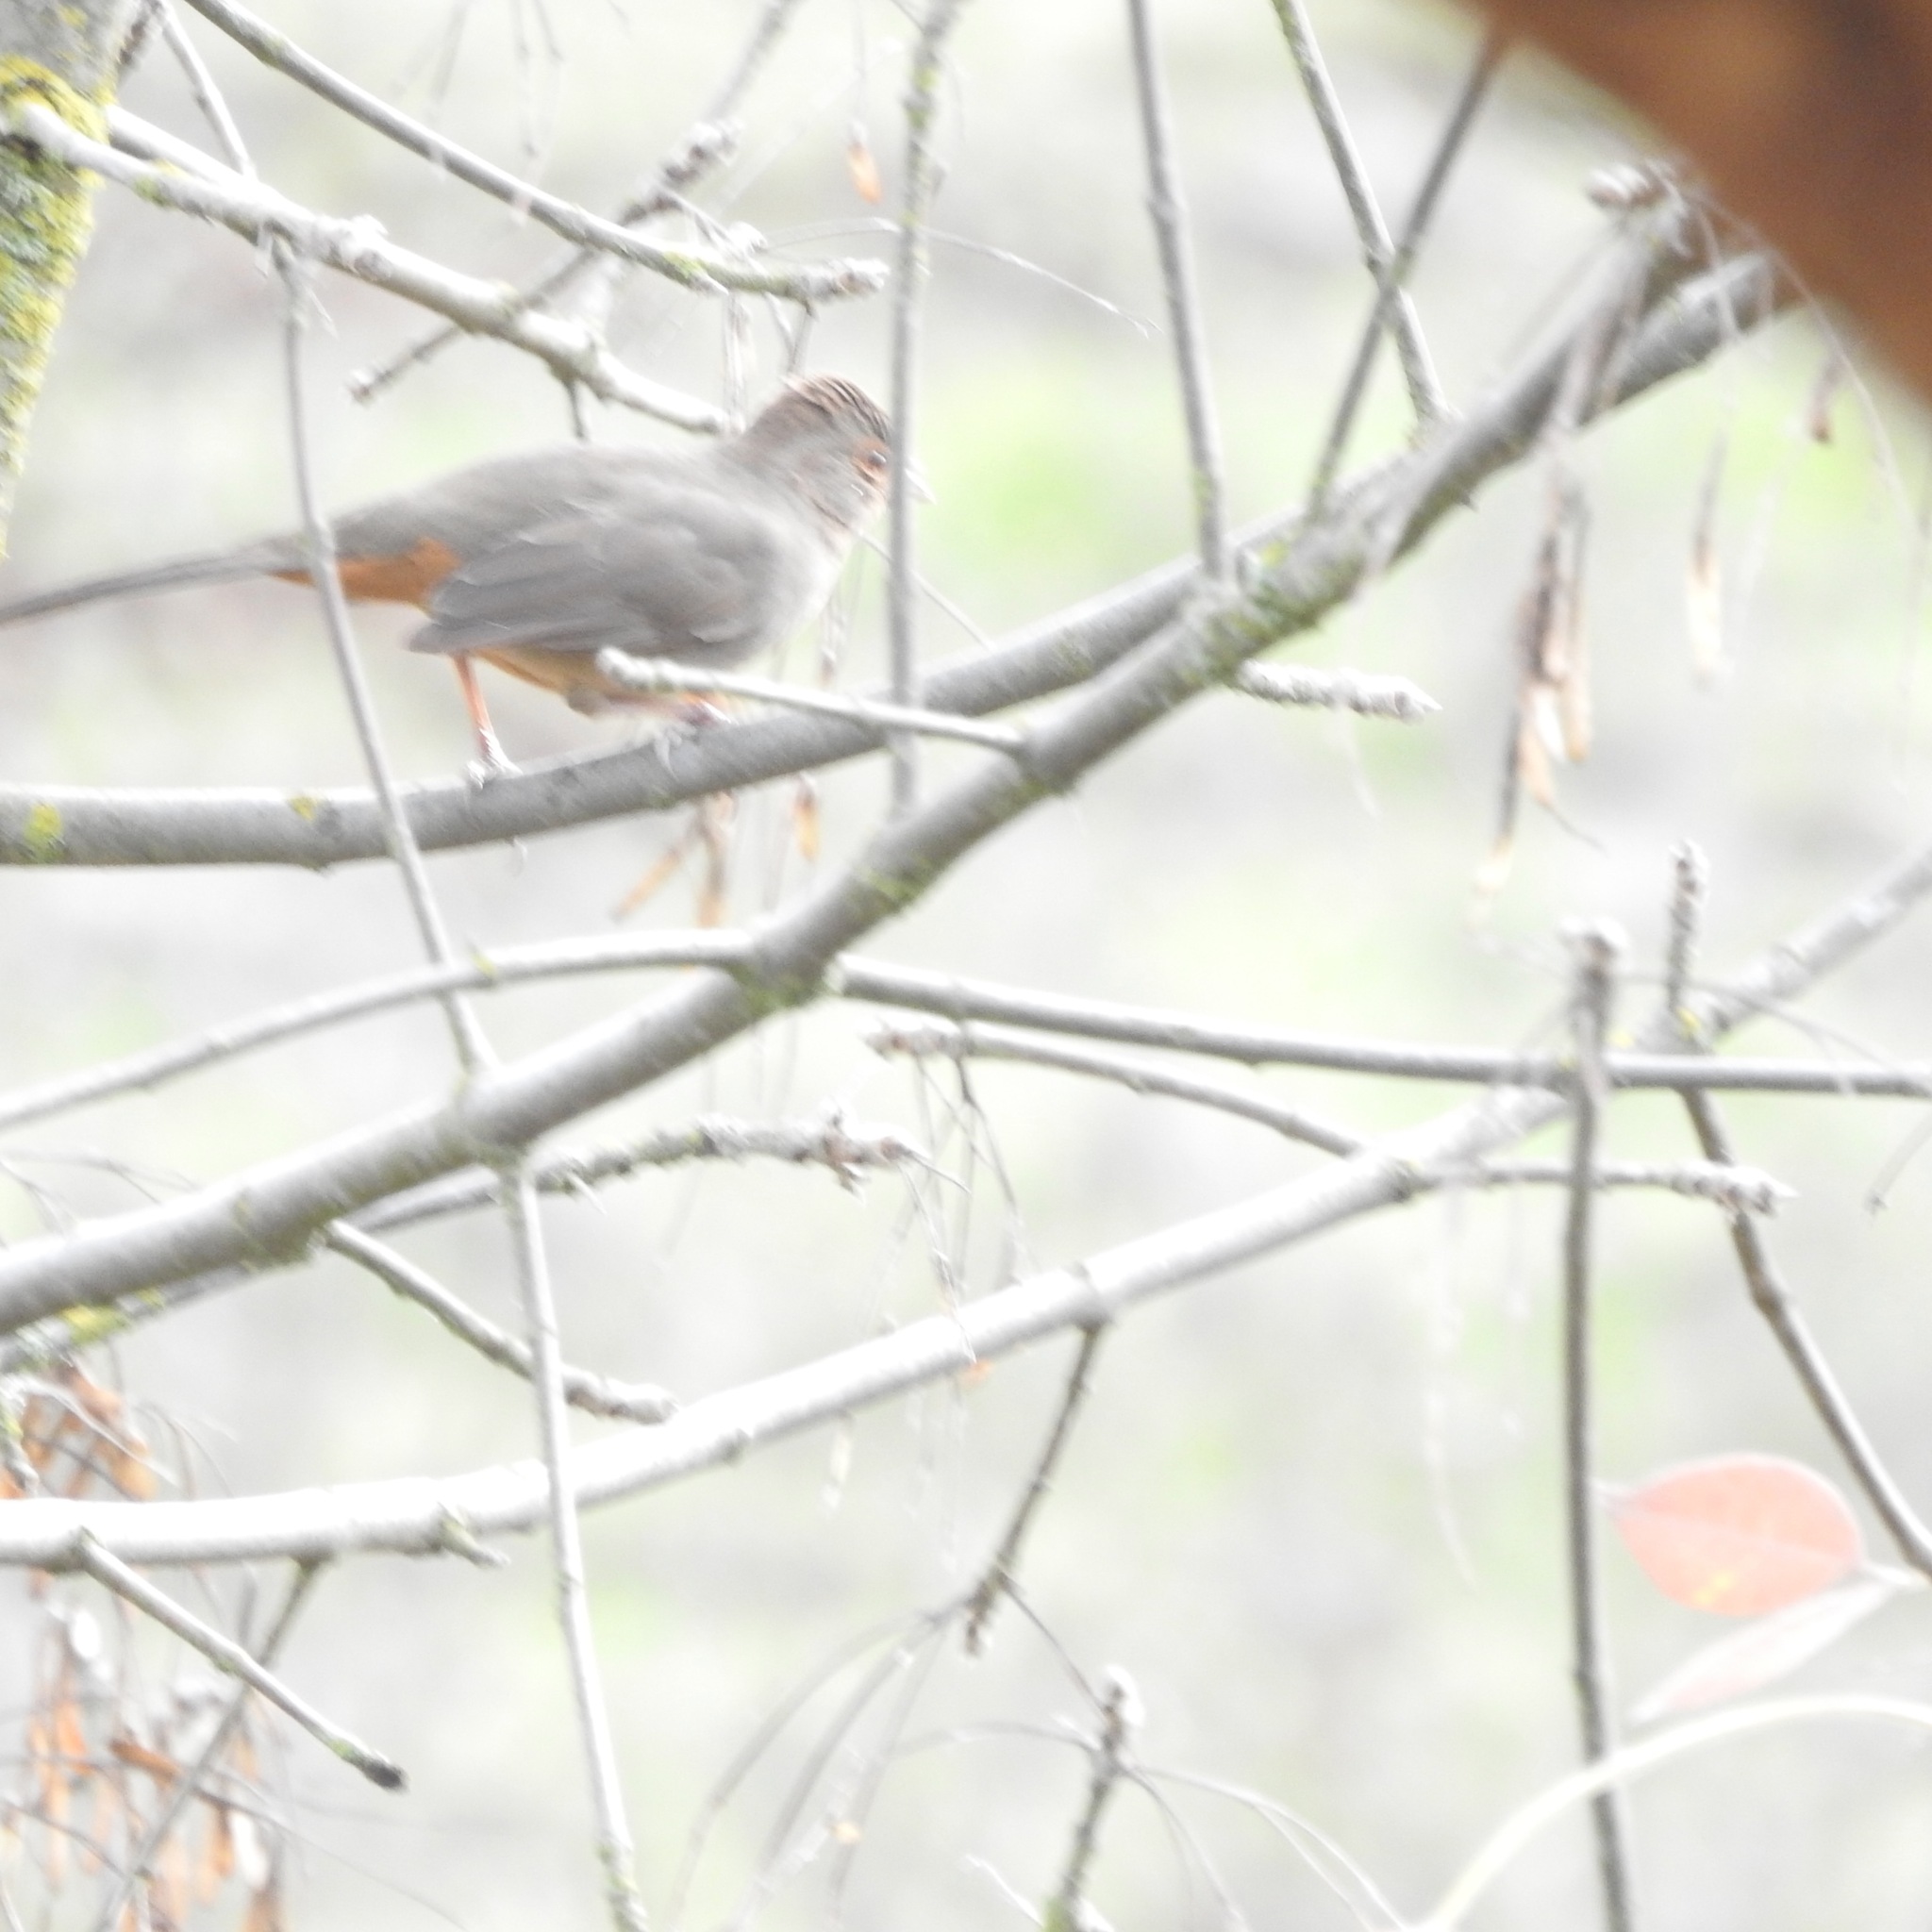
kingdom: Animalia
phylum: Chordata
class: Aves
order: Passeriformes
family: Passerellidae
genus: Melozone
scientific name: Melozone crissalis
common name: California towhee
